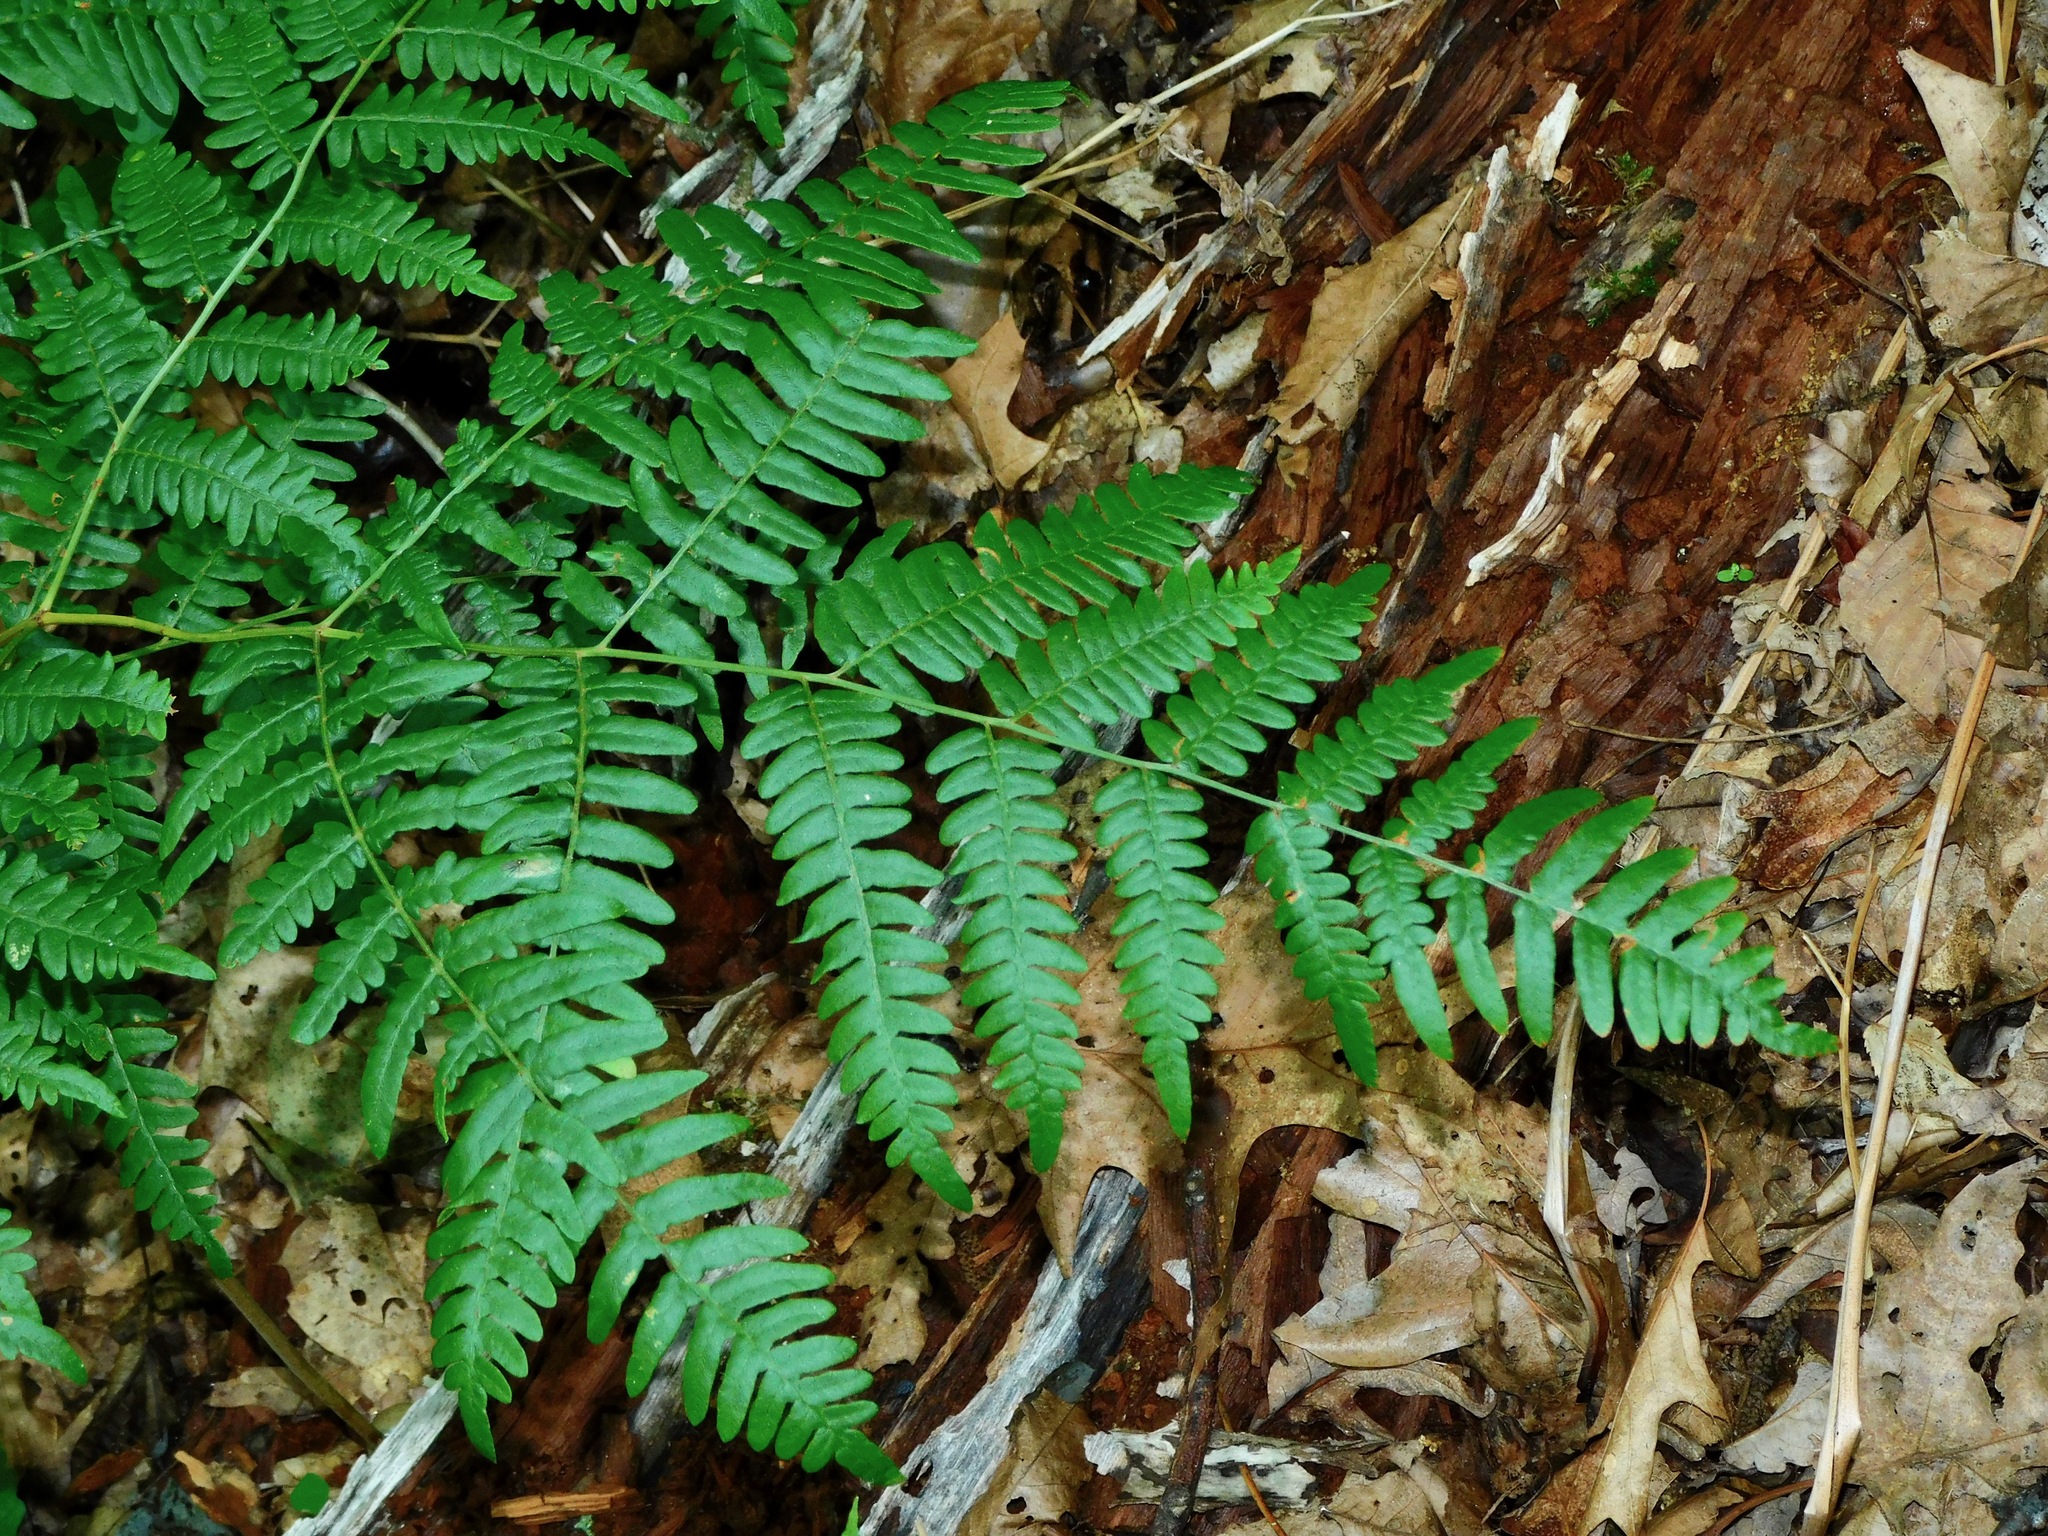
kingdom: Plantae
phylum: Tracheophyta
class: Polypodiopsida
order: Polypodiales
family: Dennstaedtiaceae
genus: Pteridium
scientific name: Pteridium aquilinum
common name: Bracken
